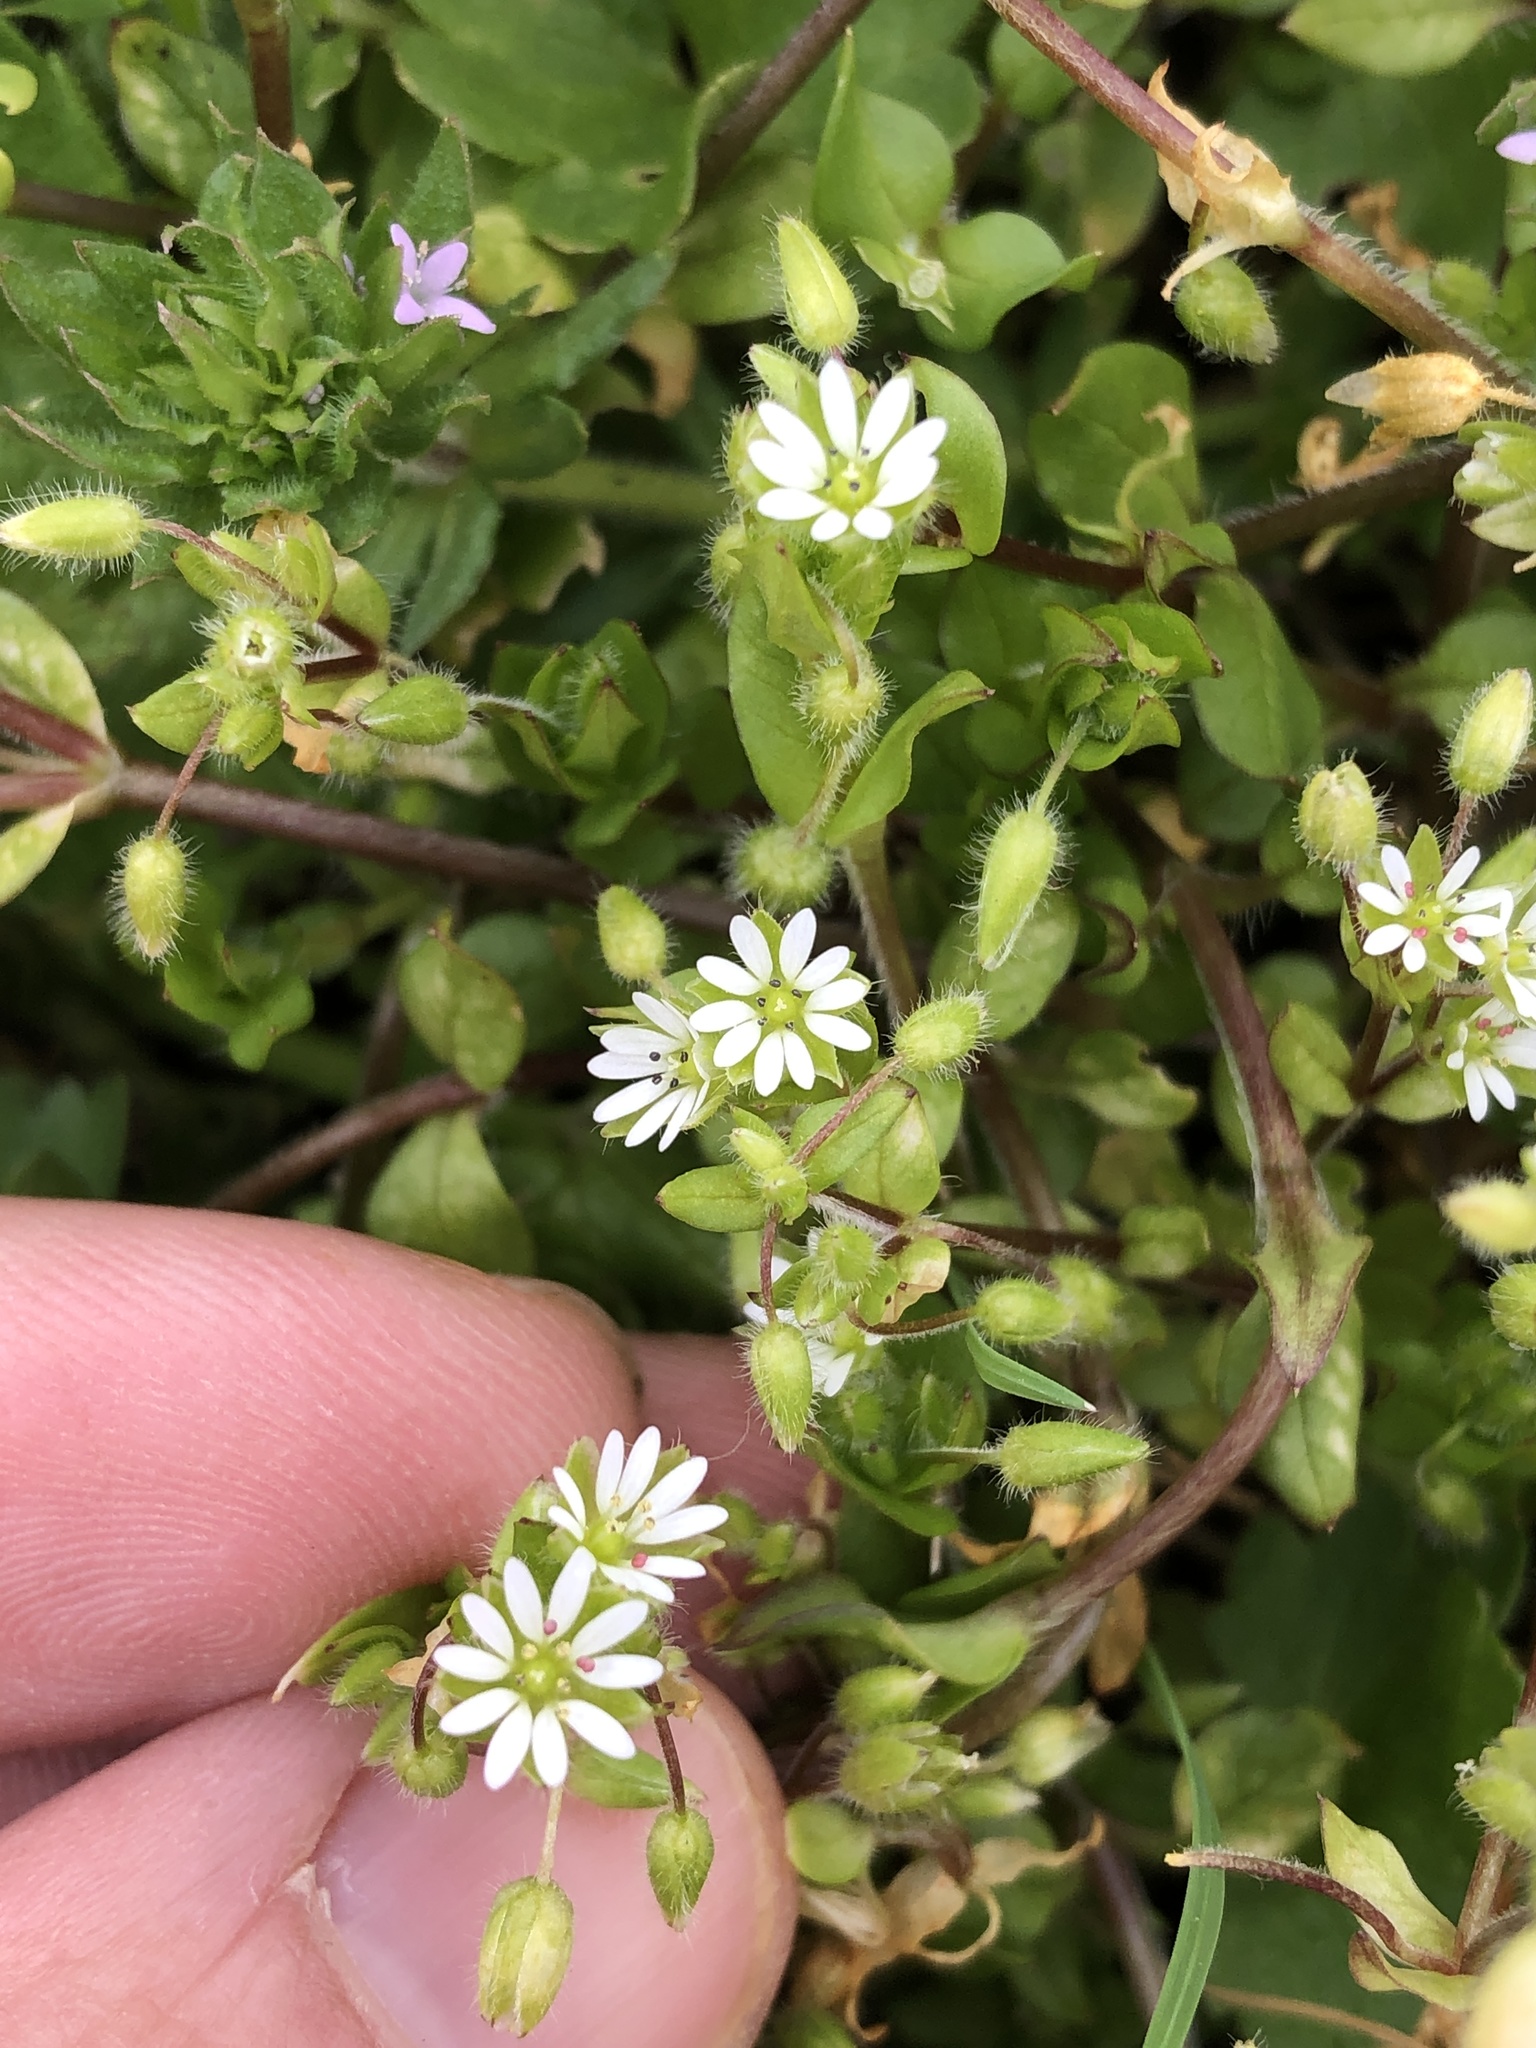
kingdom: Plantae
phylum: Tracheophyta
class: Magnoliopsida
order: Caryophyllales
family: Caryophyllaceae
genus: Stellaria
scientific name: Stellaria media
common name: Common chickweed
